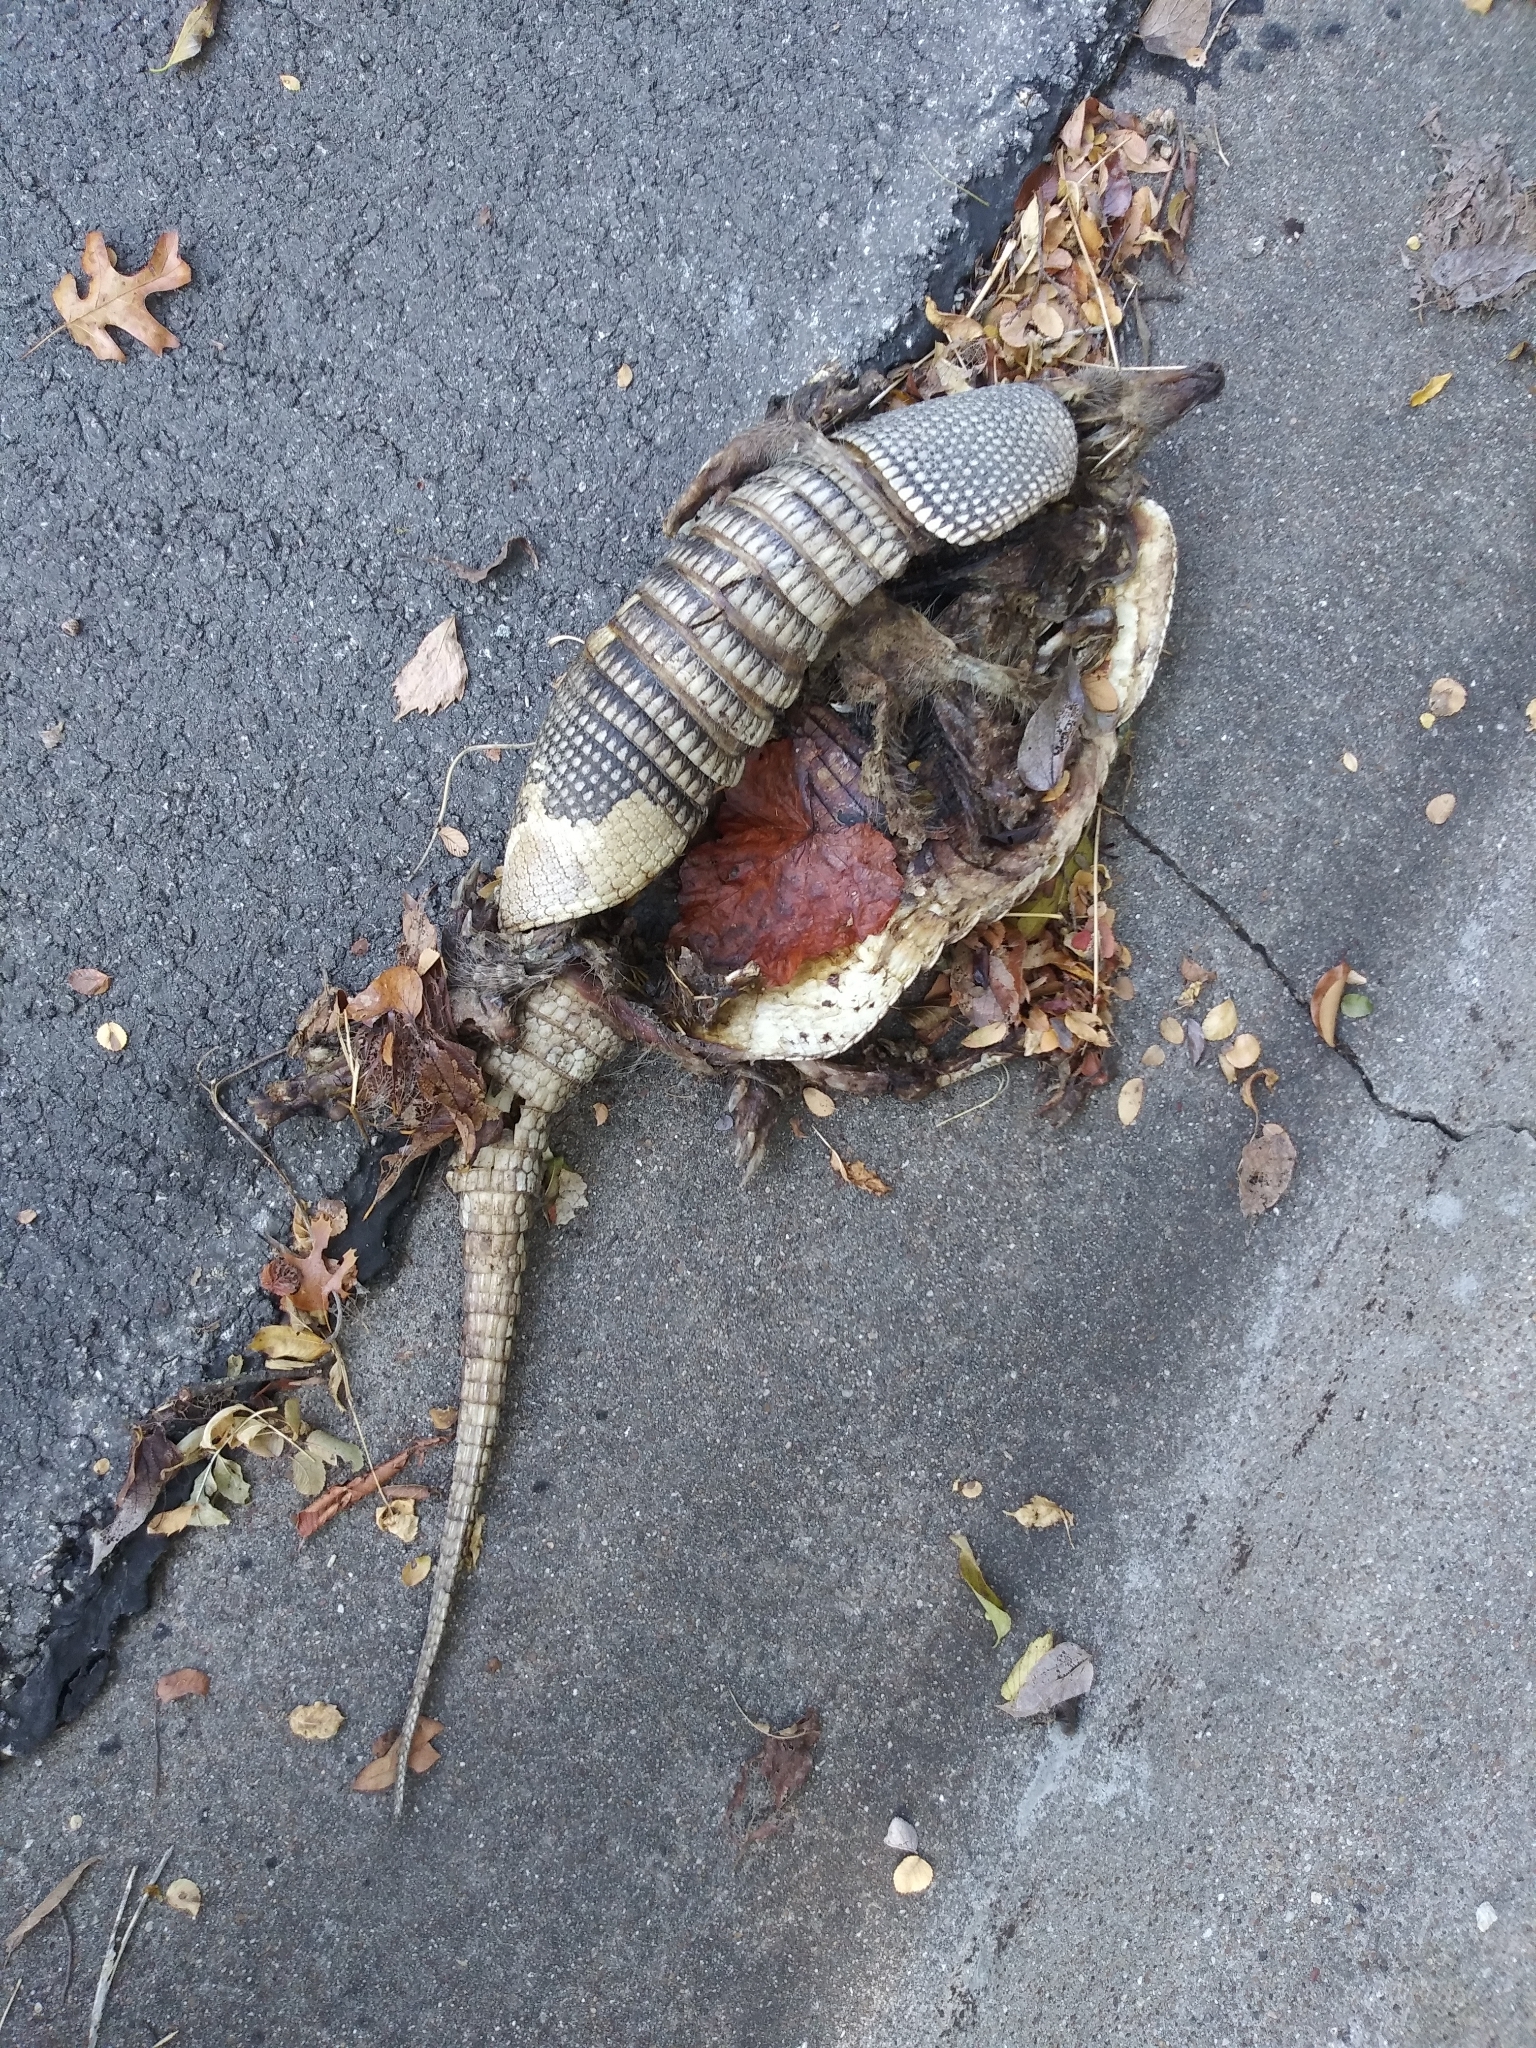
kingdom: Animalia
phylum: Chordata
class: Mammalia
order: Cingulata
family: Dasypodidae
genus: Dasypus
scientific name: Dasypus novemcinctus
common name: Nine-banded armadillo
